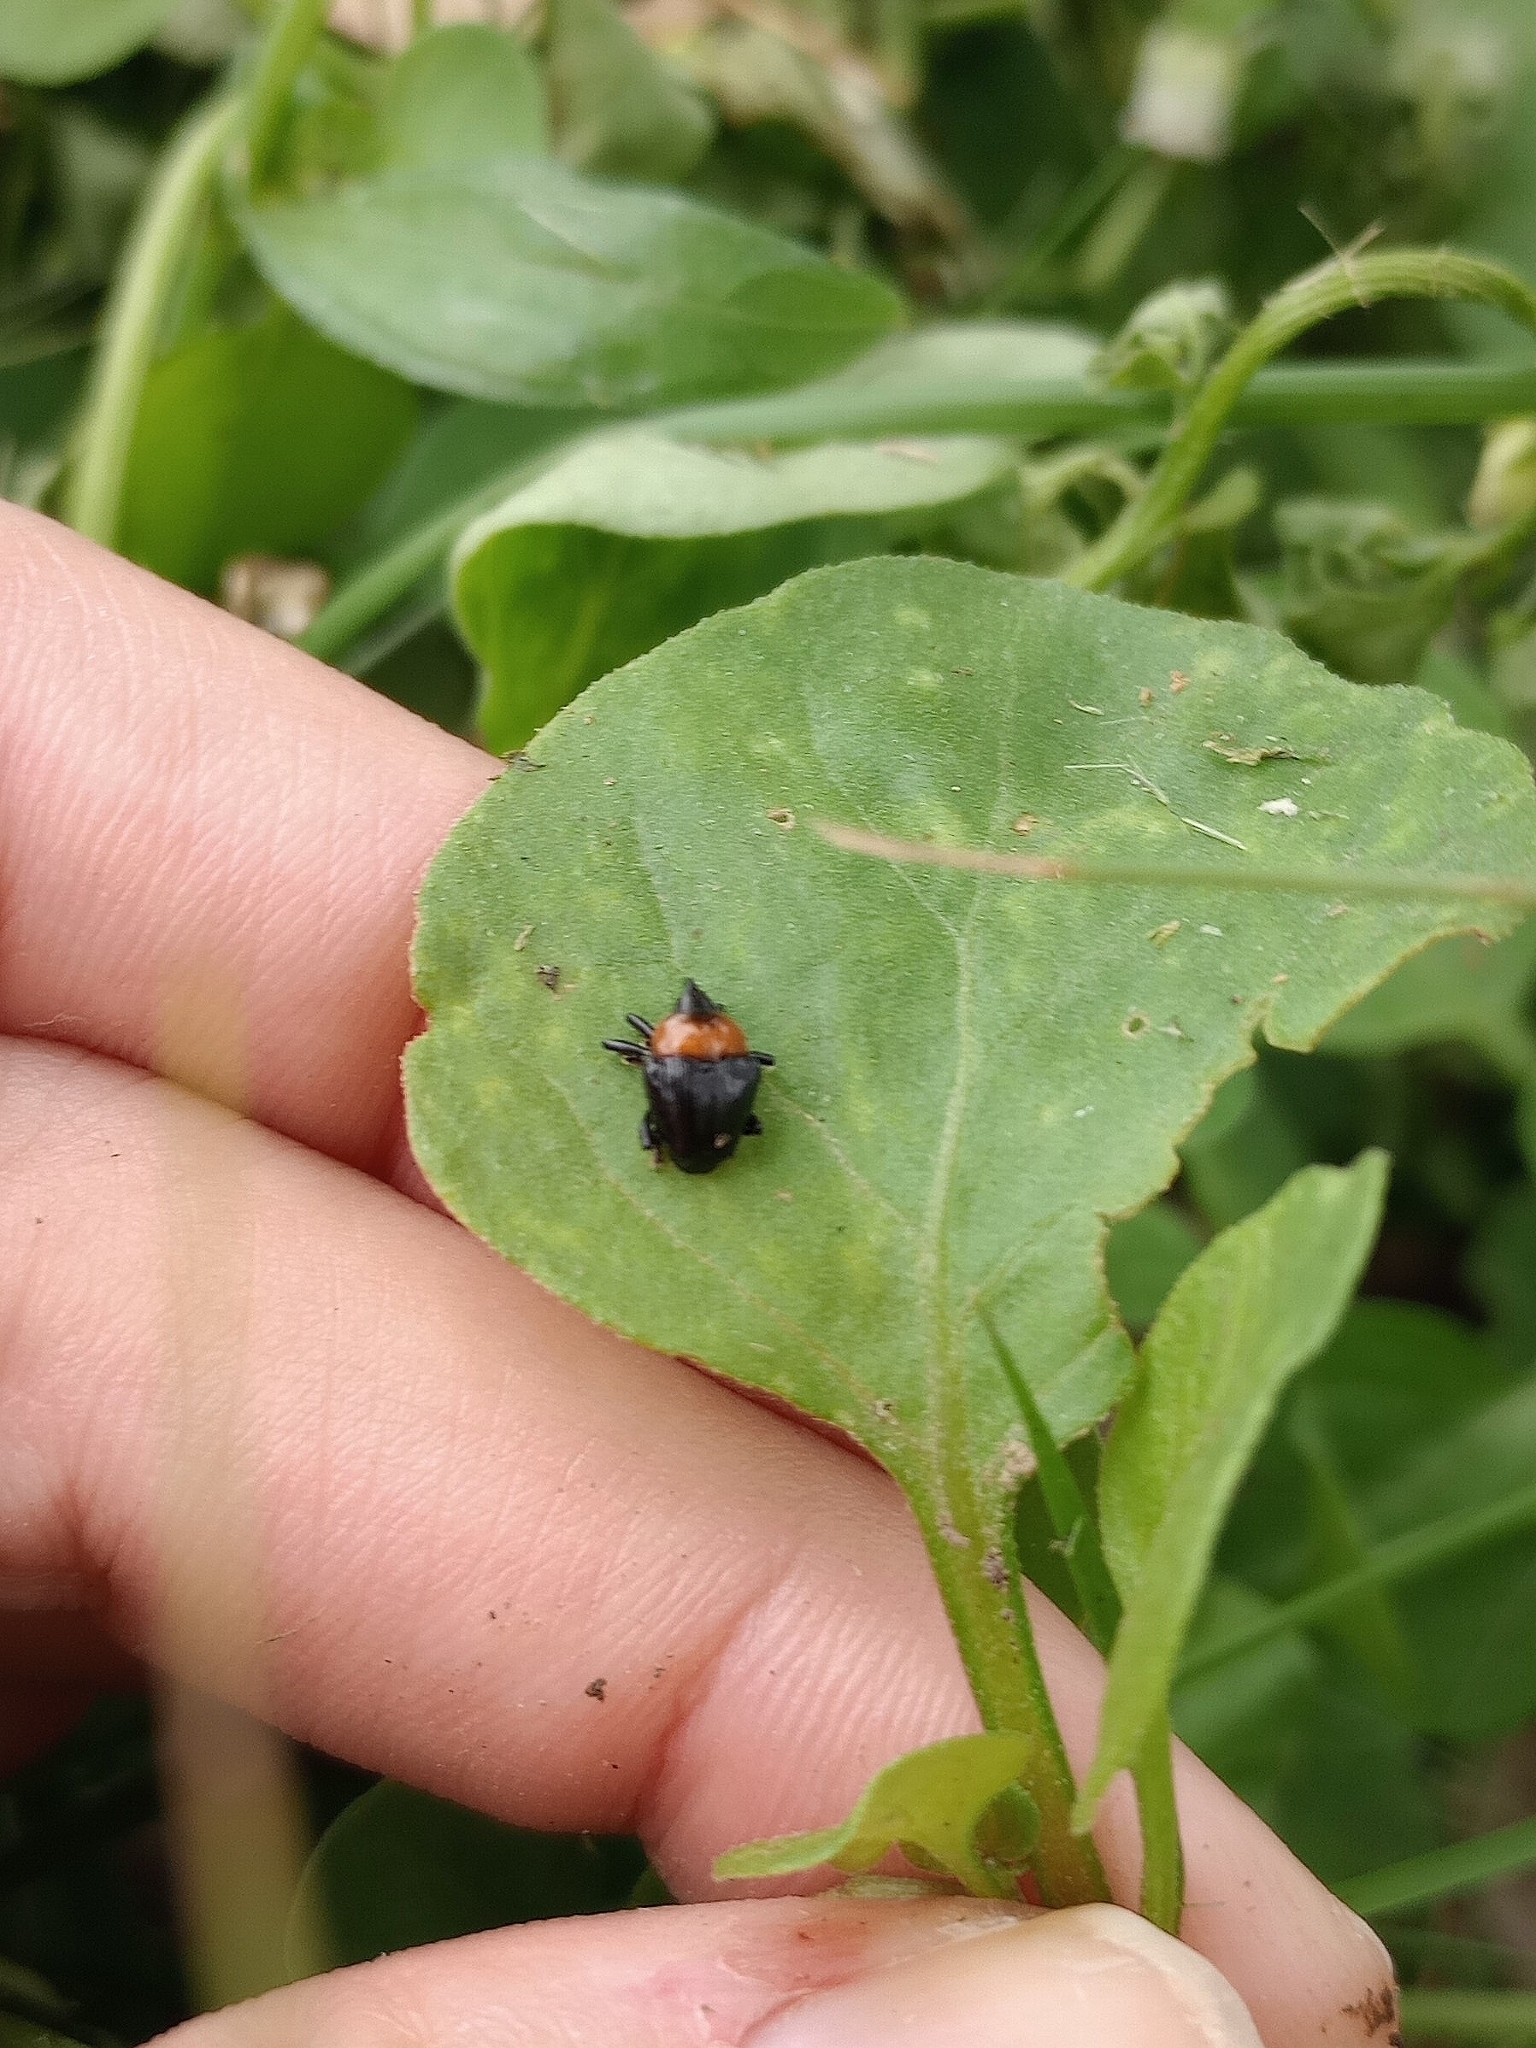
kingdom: Animalia
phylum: Arthropoda
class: Insecta
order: Coleoptera
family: Curculionidae
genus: Xystus
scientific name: Xystus sanguinicollis
